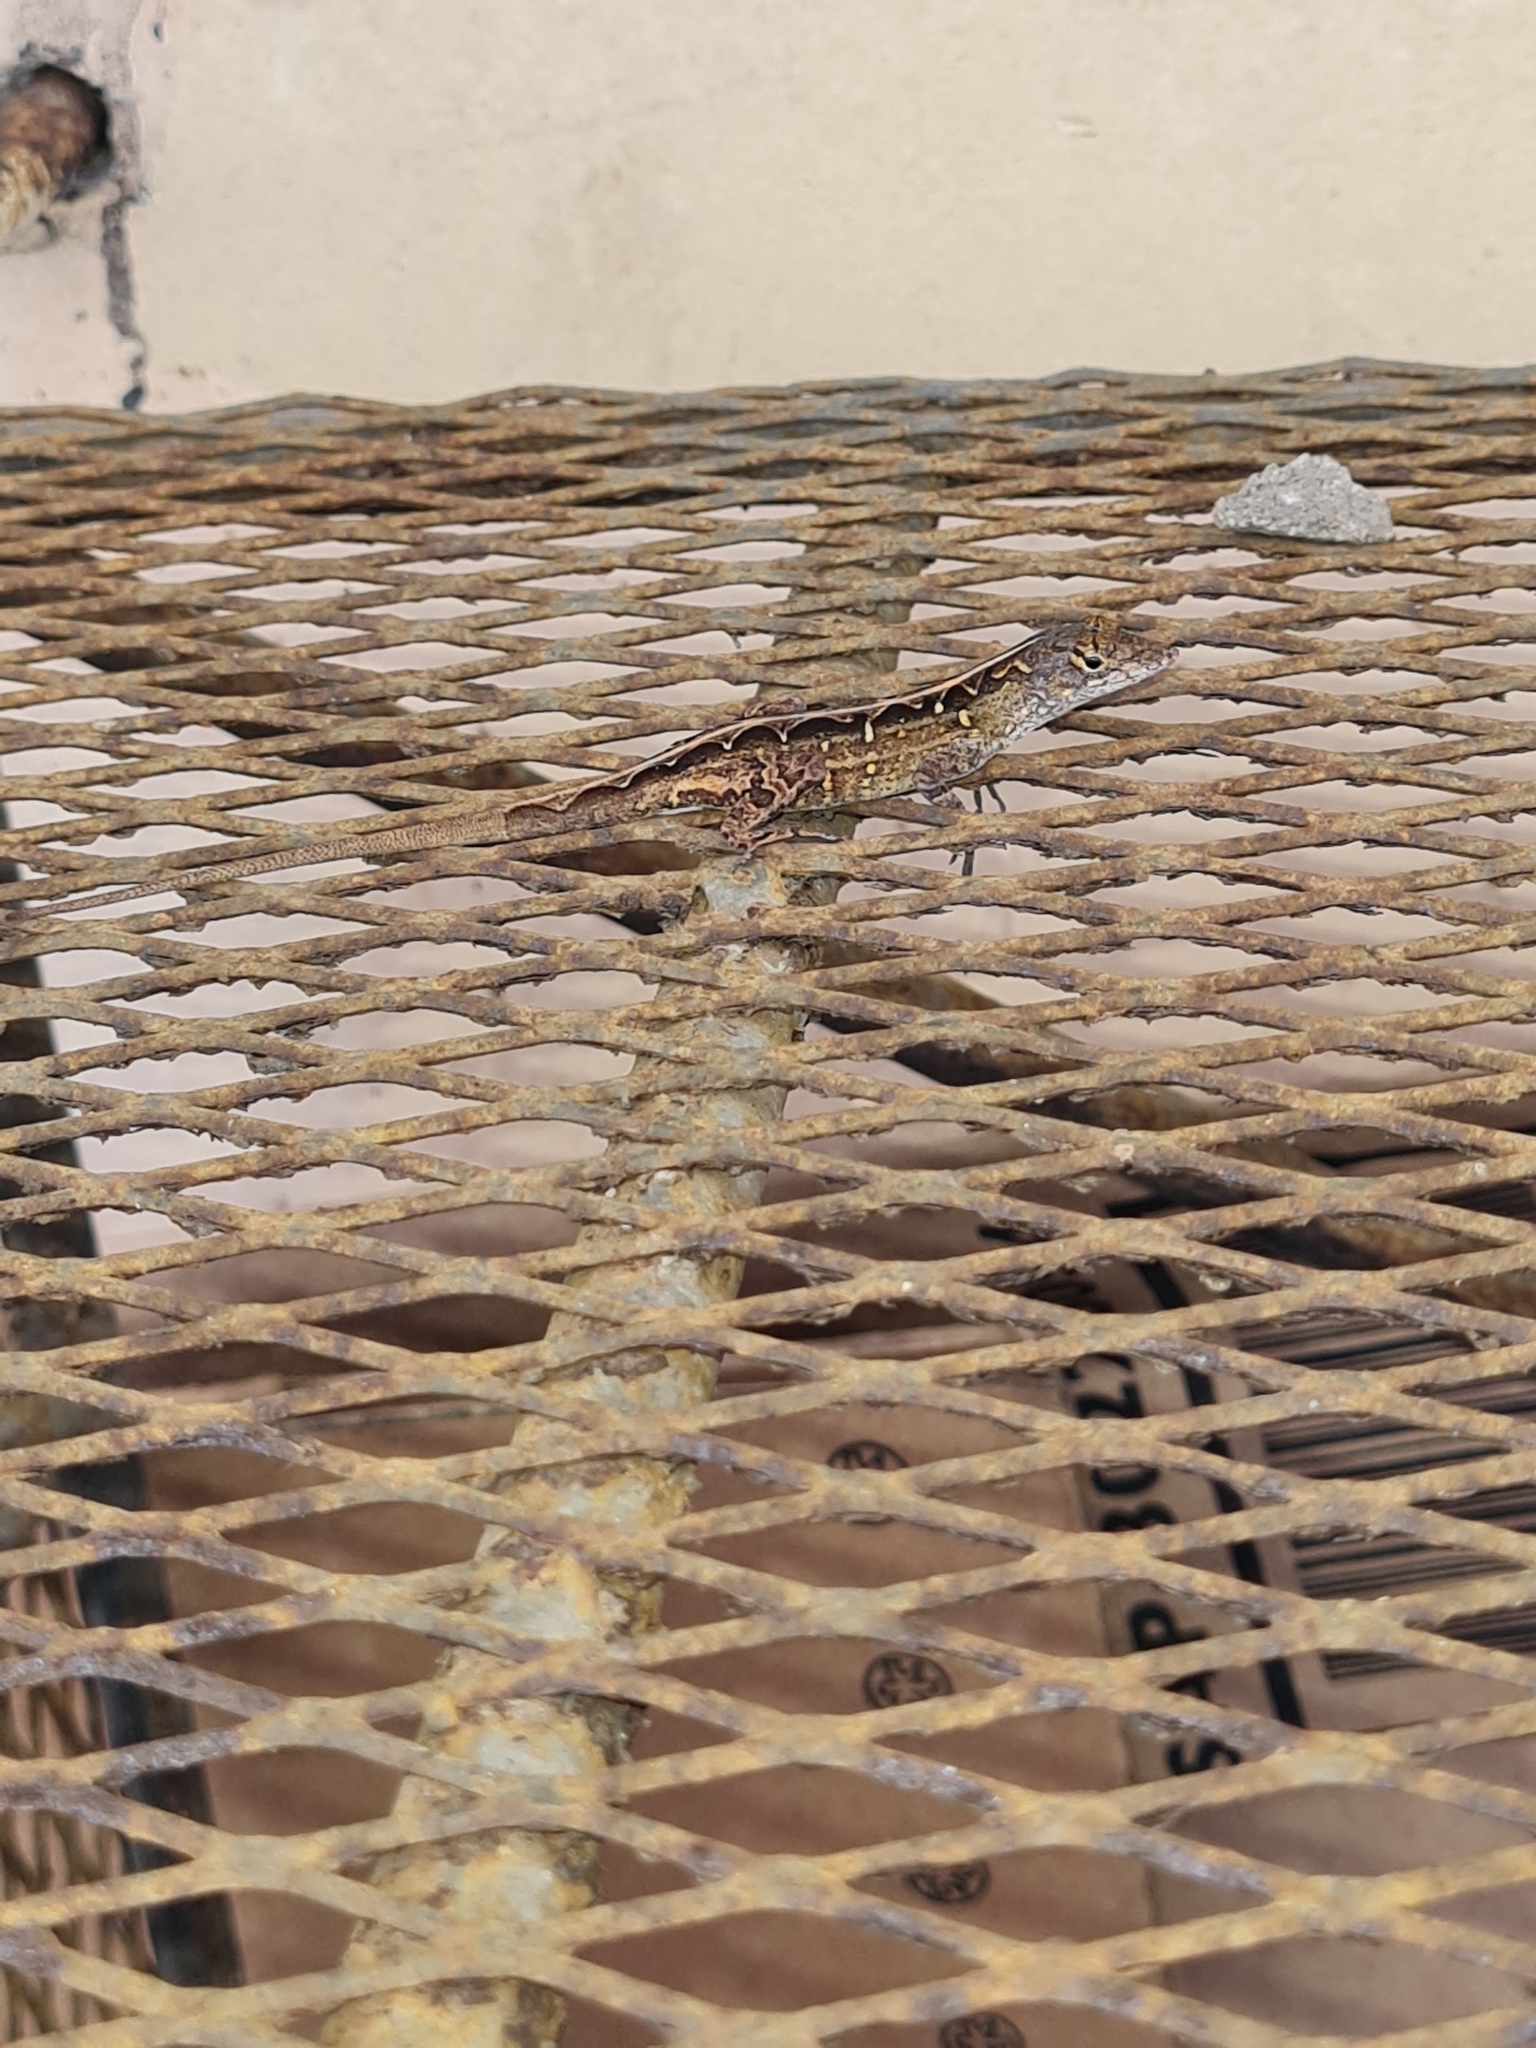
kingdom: Animalia
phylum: Chordata
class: Squamata
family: Dactyloidae
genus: Anolis
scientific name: Anolis sagrei
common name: Brown anole
